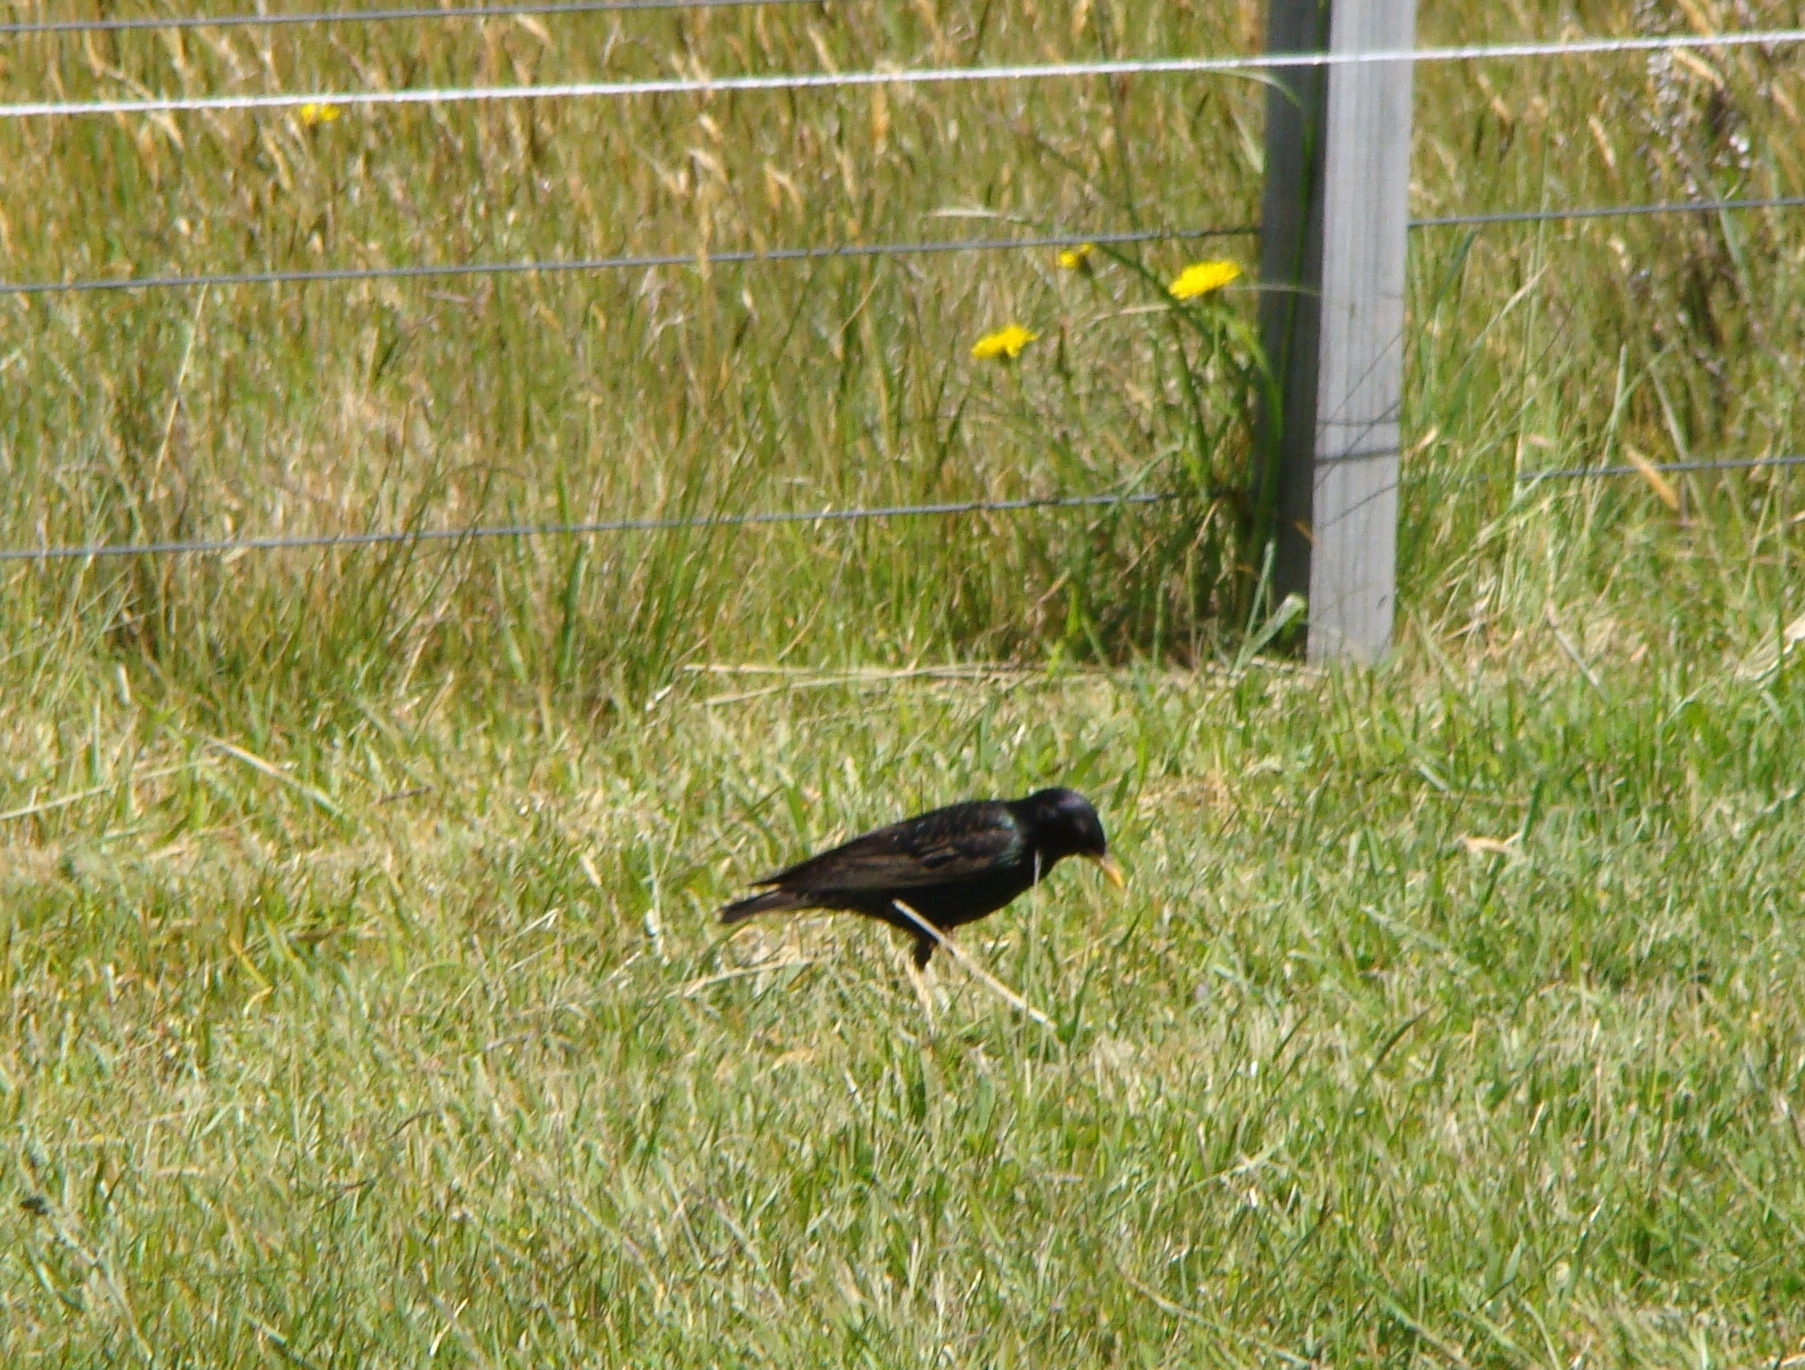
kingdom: Animalia
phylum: Chordata
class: Aves
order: Passeriformes
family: Sturnidae
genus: Sturnus
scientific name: Sturnus vulgaris
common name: Common starling
